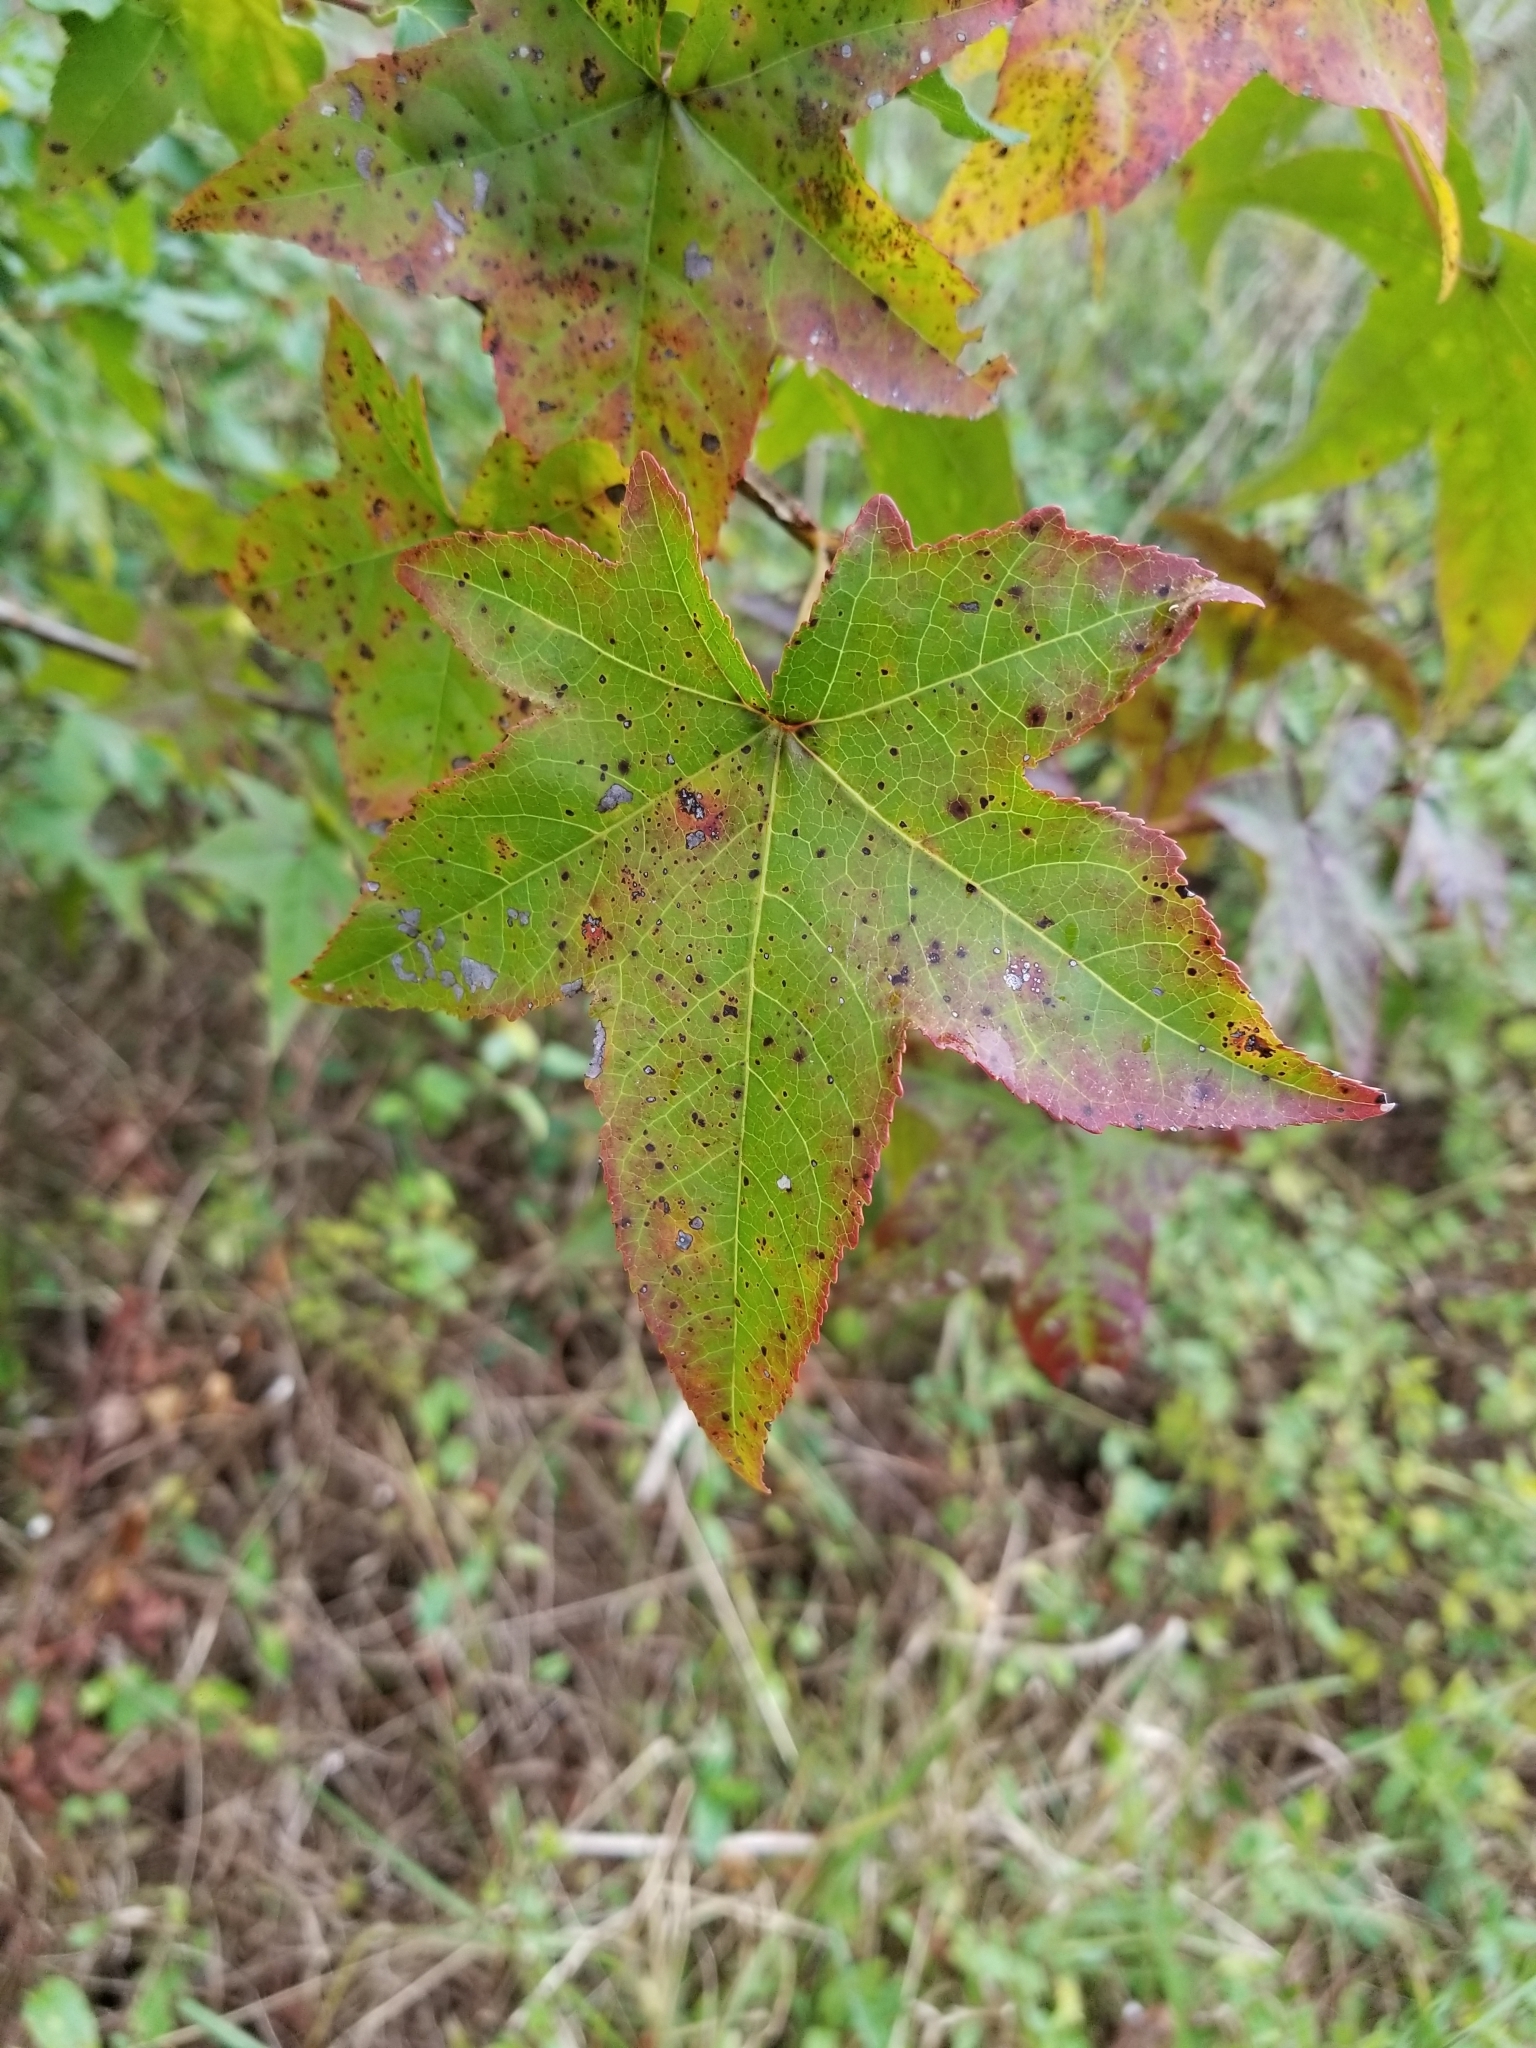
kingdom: Plantae
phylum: Tracheophyta
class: Magnoliopsida
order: Saxifragales
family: Altingiaceae
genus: Liquidambar
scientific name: Liquidambar styraciflua
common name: Sweet gum
